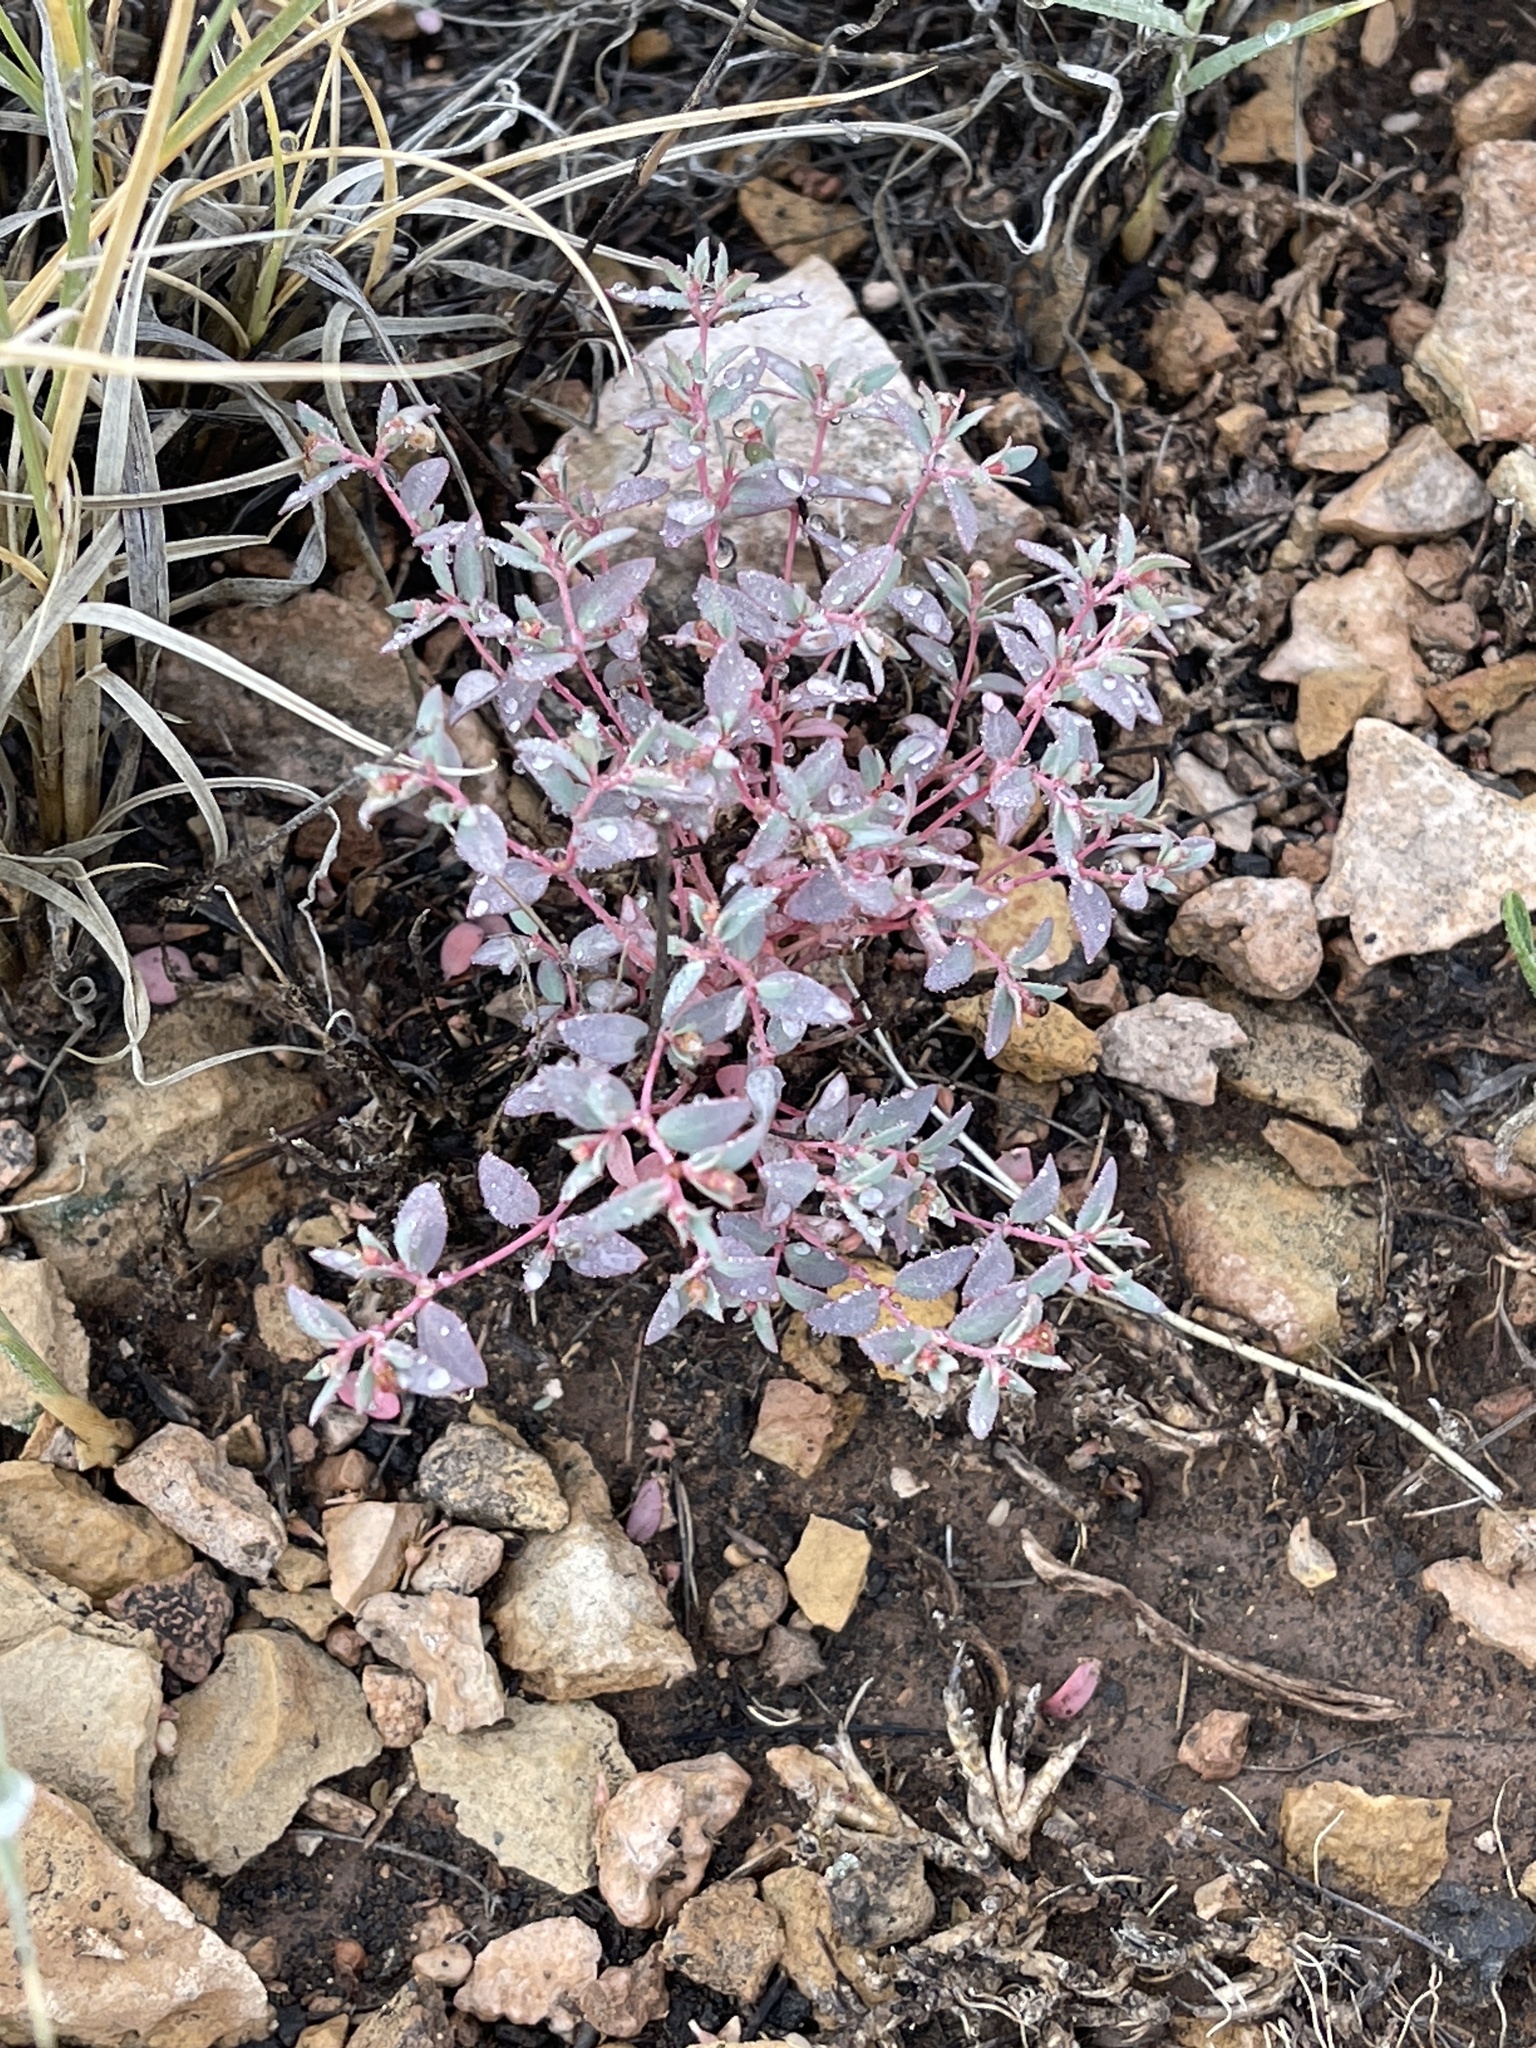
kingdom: Plantae
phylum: Tracheophyta
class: Magnoliopsida
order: Malpighiales
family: Euphorbiaceae
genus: Euphorbia
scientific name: Euphorbia fendleri
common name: Fendler's euphorbia
